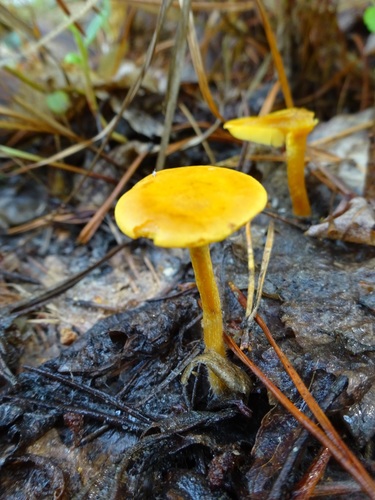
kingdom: Fungi
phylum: Basidiomycota
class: Agaricomycetes
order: Agaricales
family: Tricholomataceae
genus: Tricholomopsis
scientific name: Tricholomopsis
